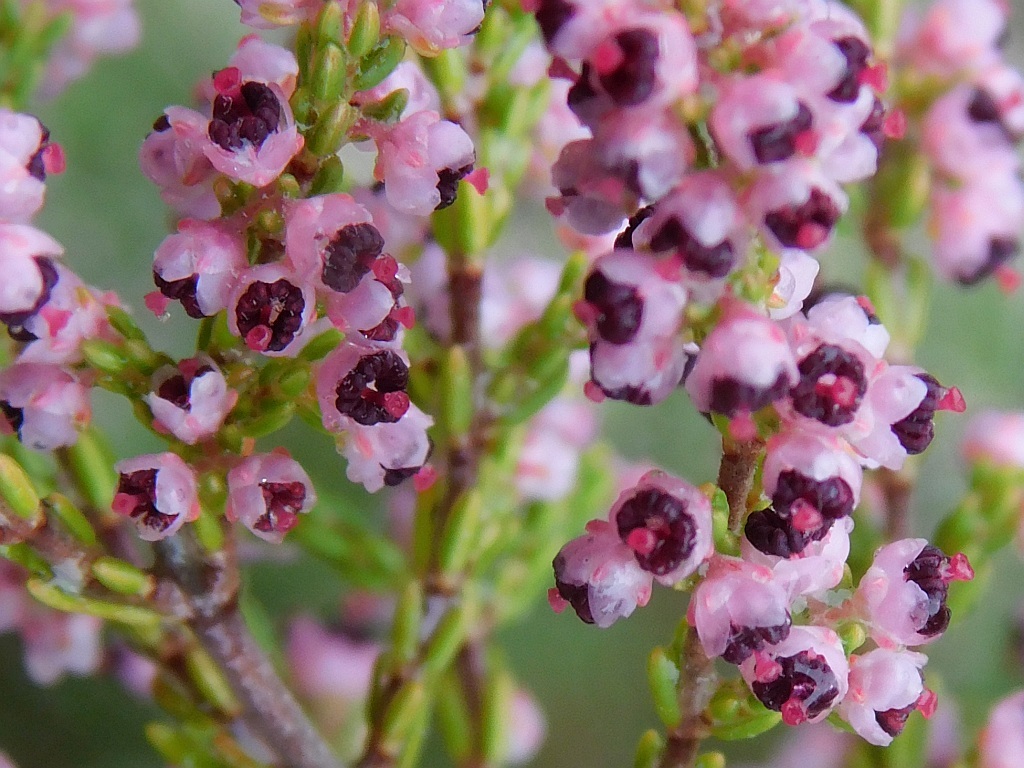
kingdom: Plantae
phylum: Tracheophyta
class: Magnoliopsida
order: Ericales
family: Ericaceae
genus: Erica
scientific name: Erica peltata
